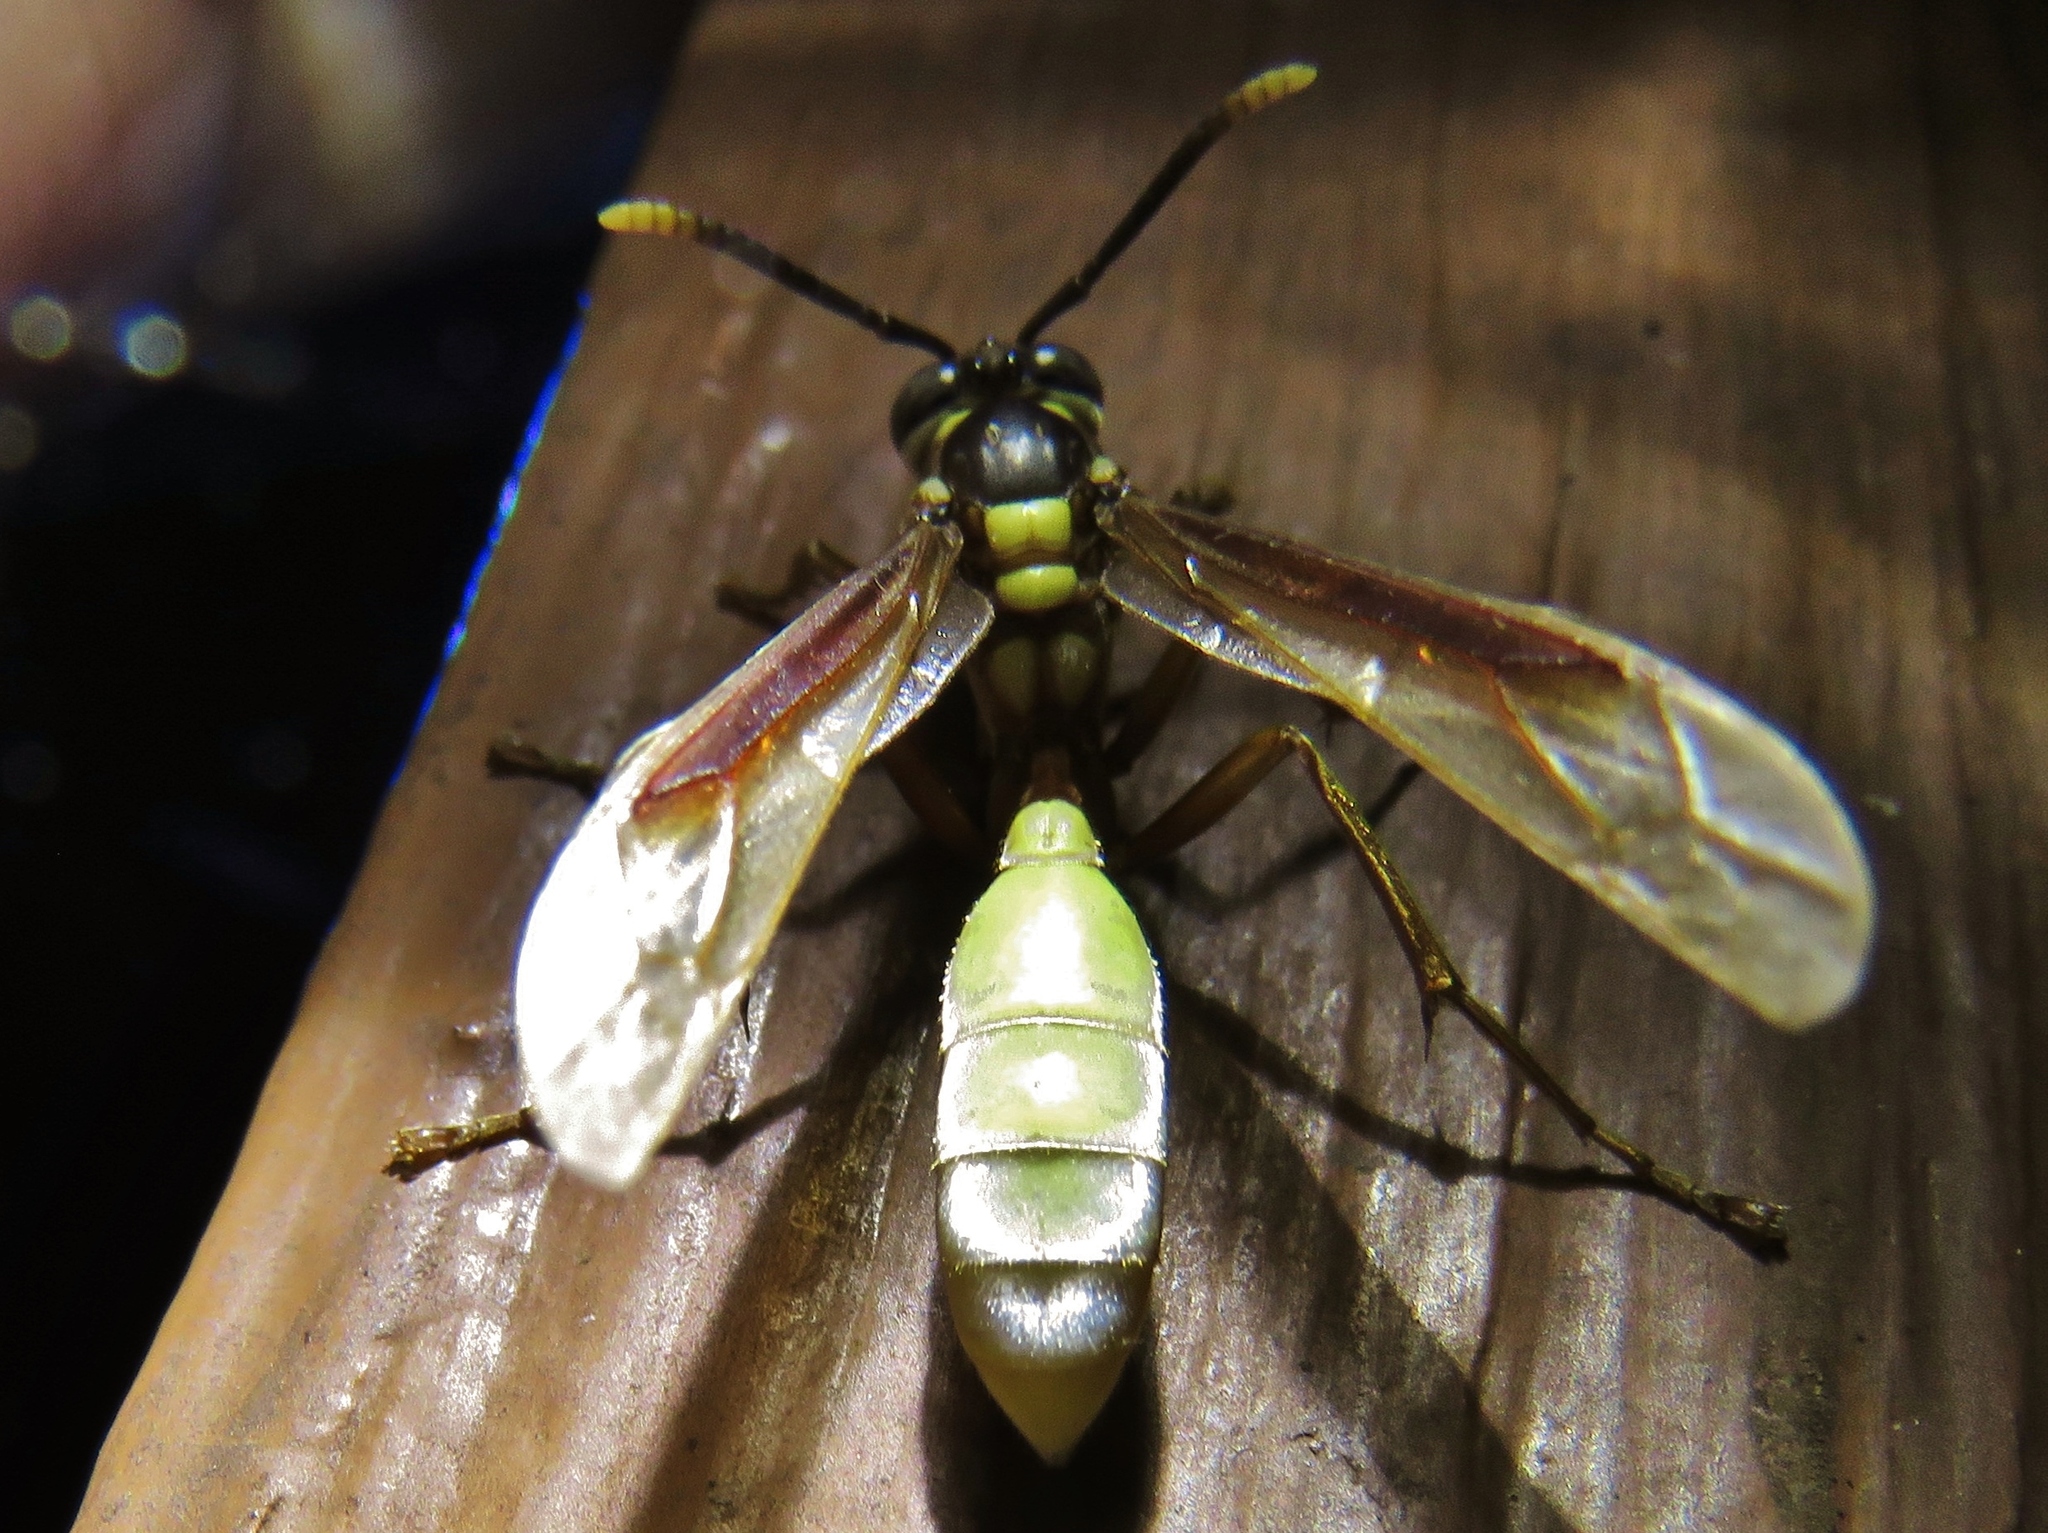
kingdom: Animalia
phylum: Arthropoda
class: Insecta
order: Hymenoptera
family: Vespidae
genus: Apoica
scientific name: Apoica pallens
